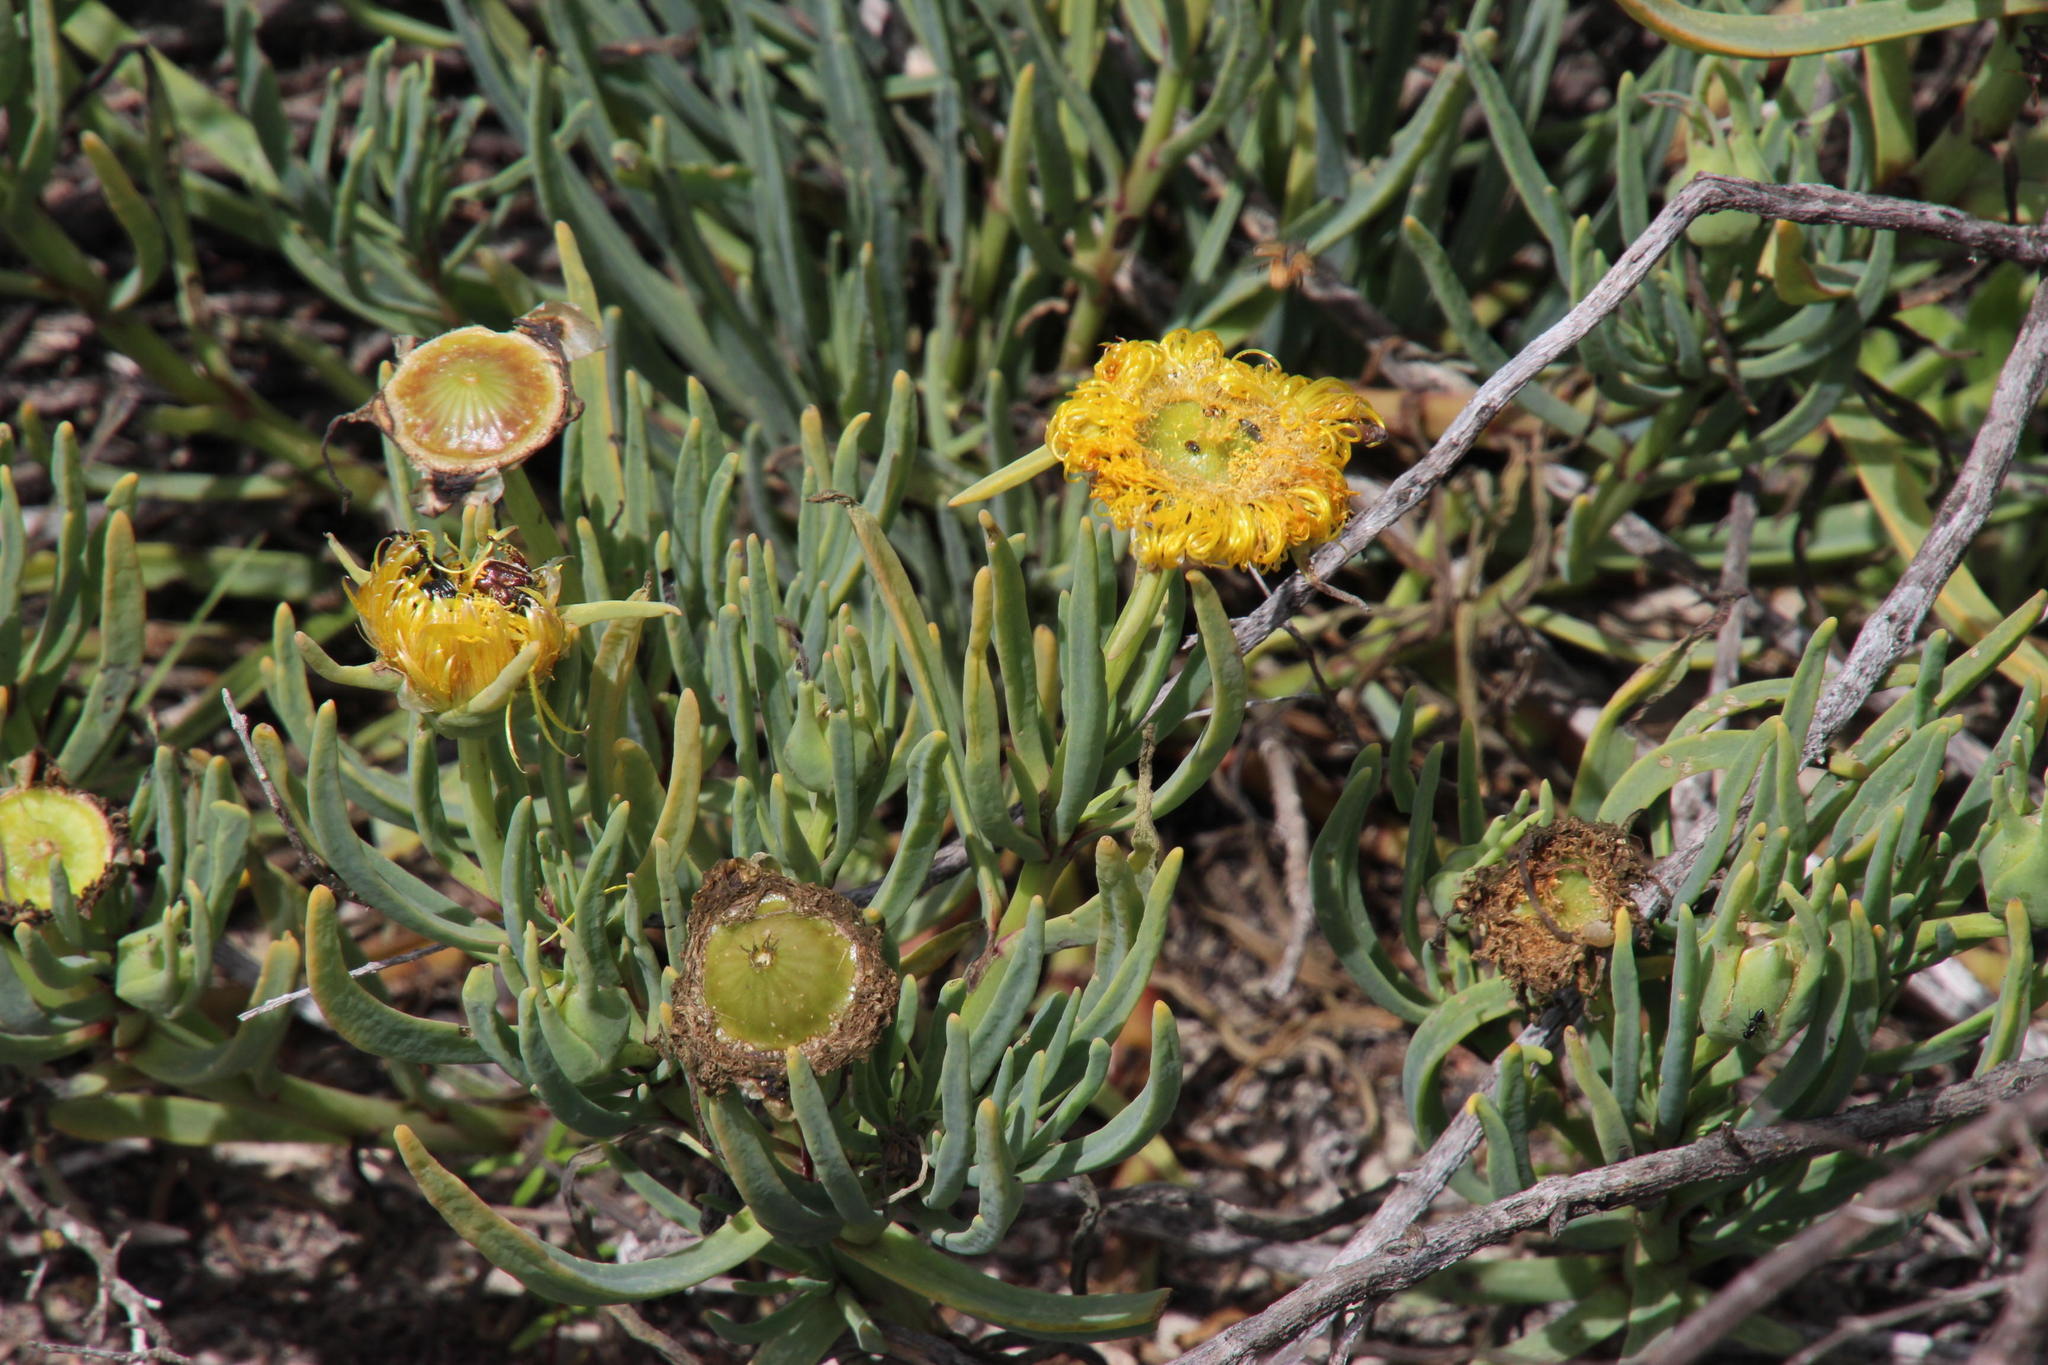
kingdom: Plantae
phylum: Tracheophyta
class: Magnoliopsida
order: Caryophyllales
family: Aizoaceae
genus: Conicosia
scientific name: Conicosia pugioniformis
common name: Narrow-leaved iceplant
